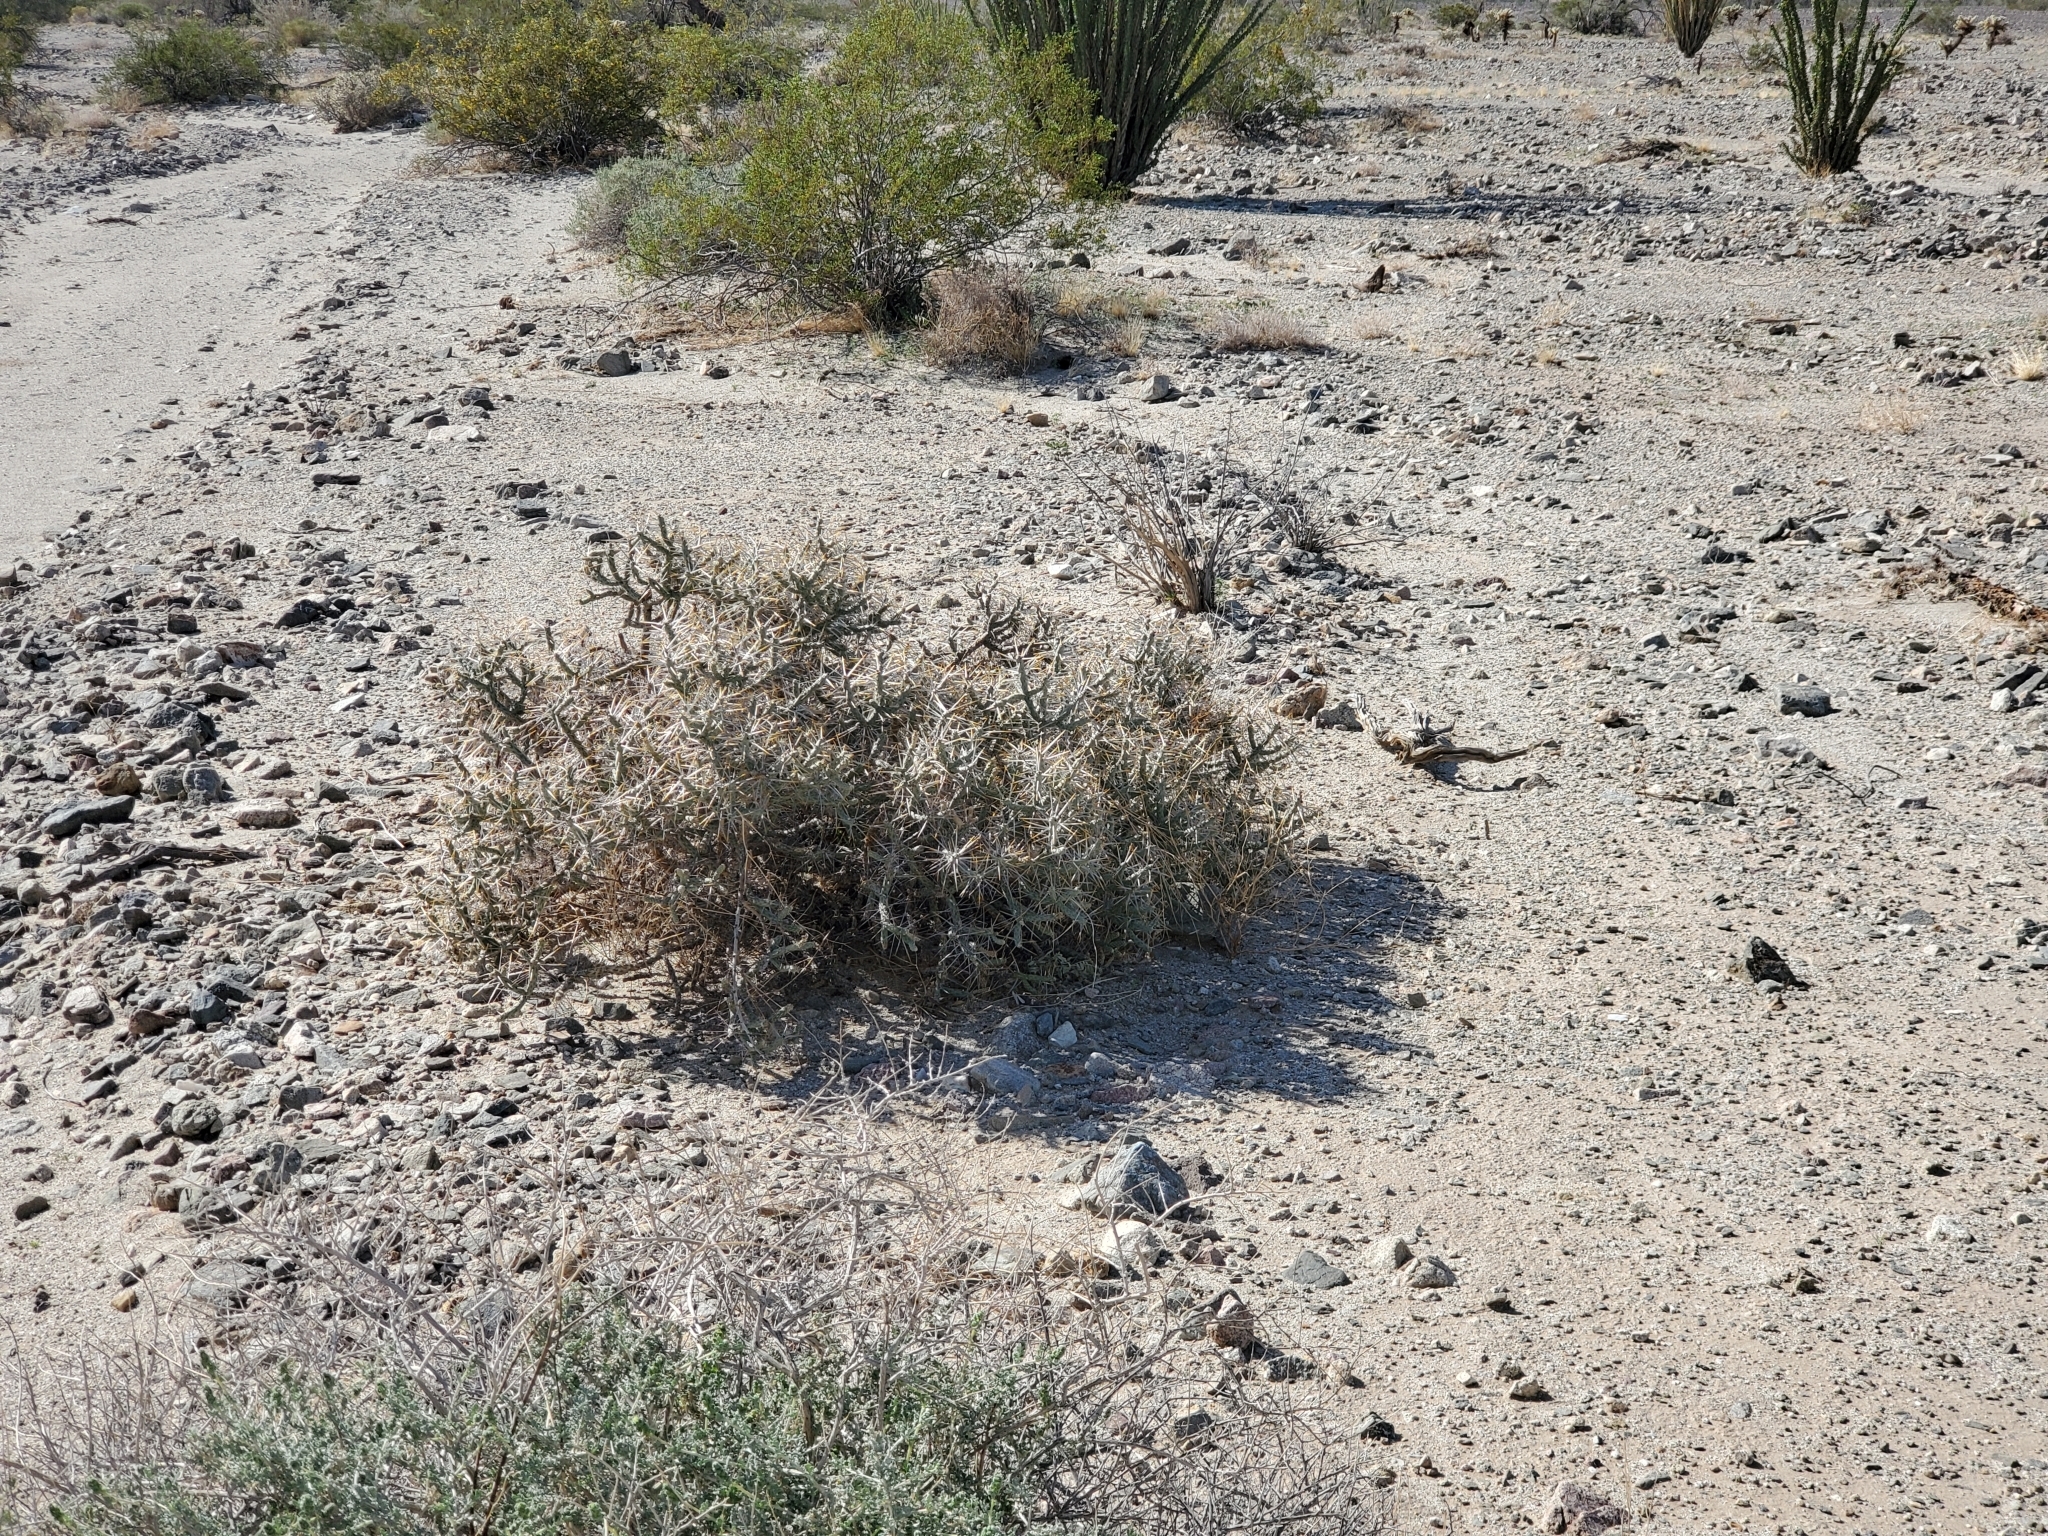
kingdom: Plantae
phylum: Tracheophyta
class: Magnoliopsida
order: Caryophyllales
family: Cactaceae
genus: Cylindropuntia
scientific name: Cylindropuntia ramosissima
